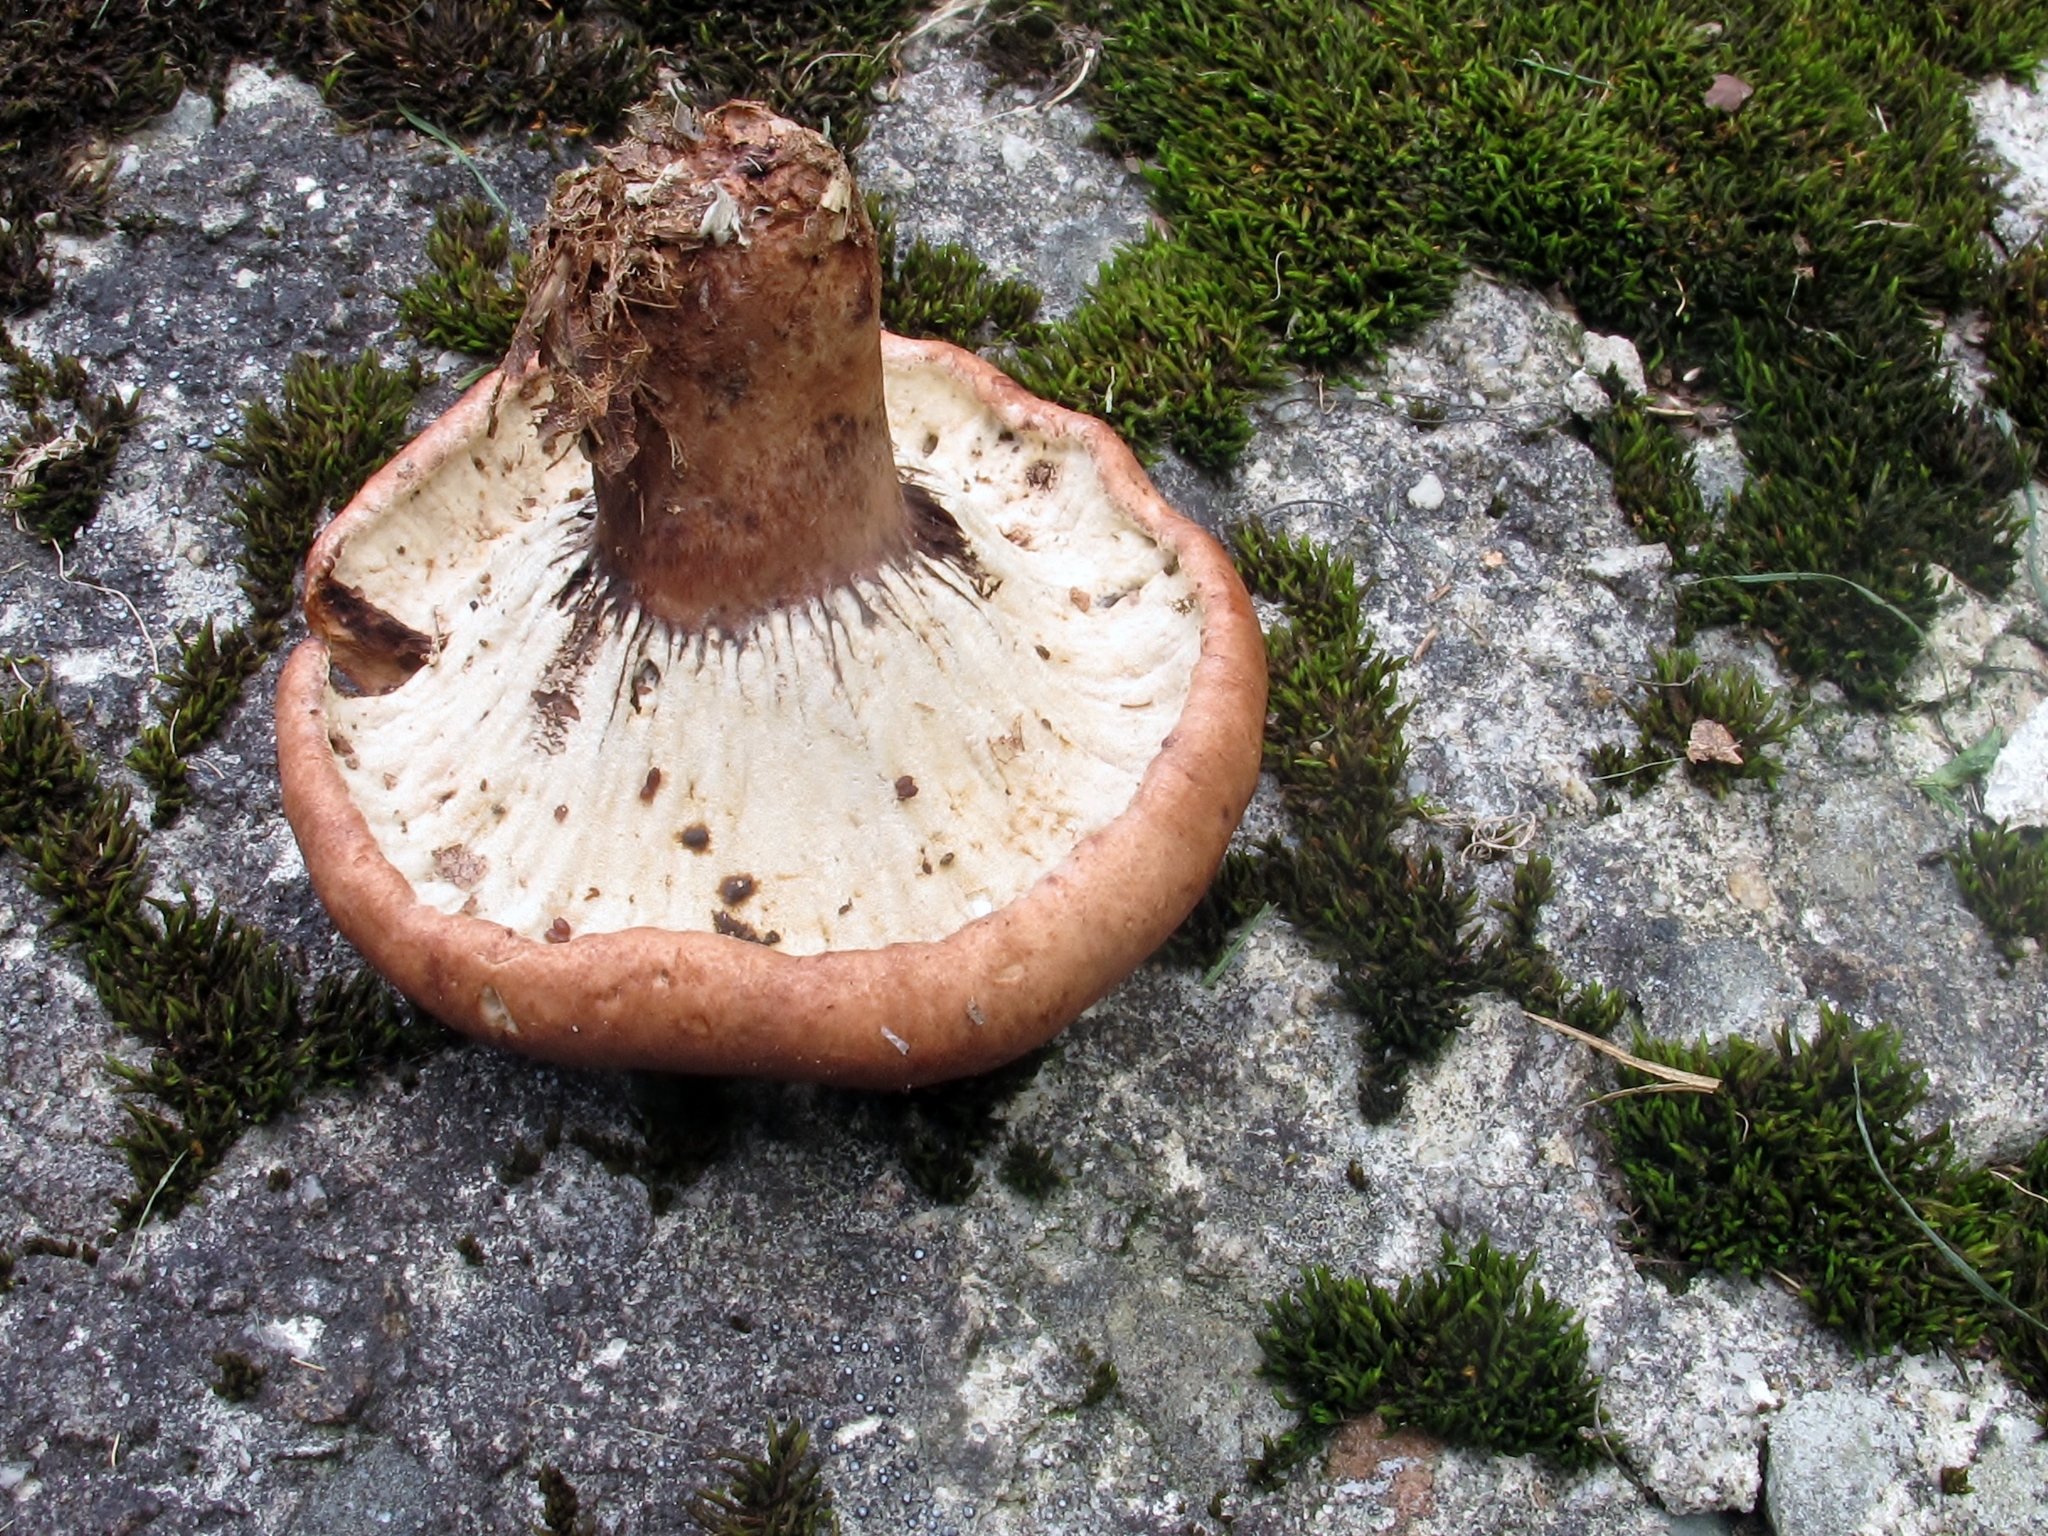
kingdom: Fungi
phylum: Ascomycota
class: Sordariomycetes
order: Hypocreales
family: Hypocreaceae
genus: Hypomyces
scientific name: Hypomyces lateritius
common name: Ochre gillgobbler
